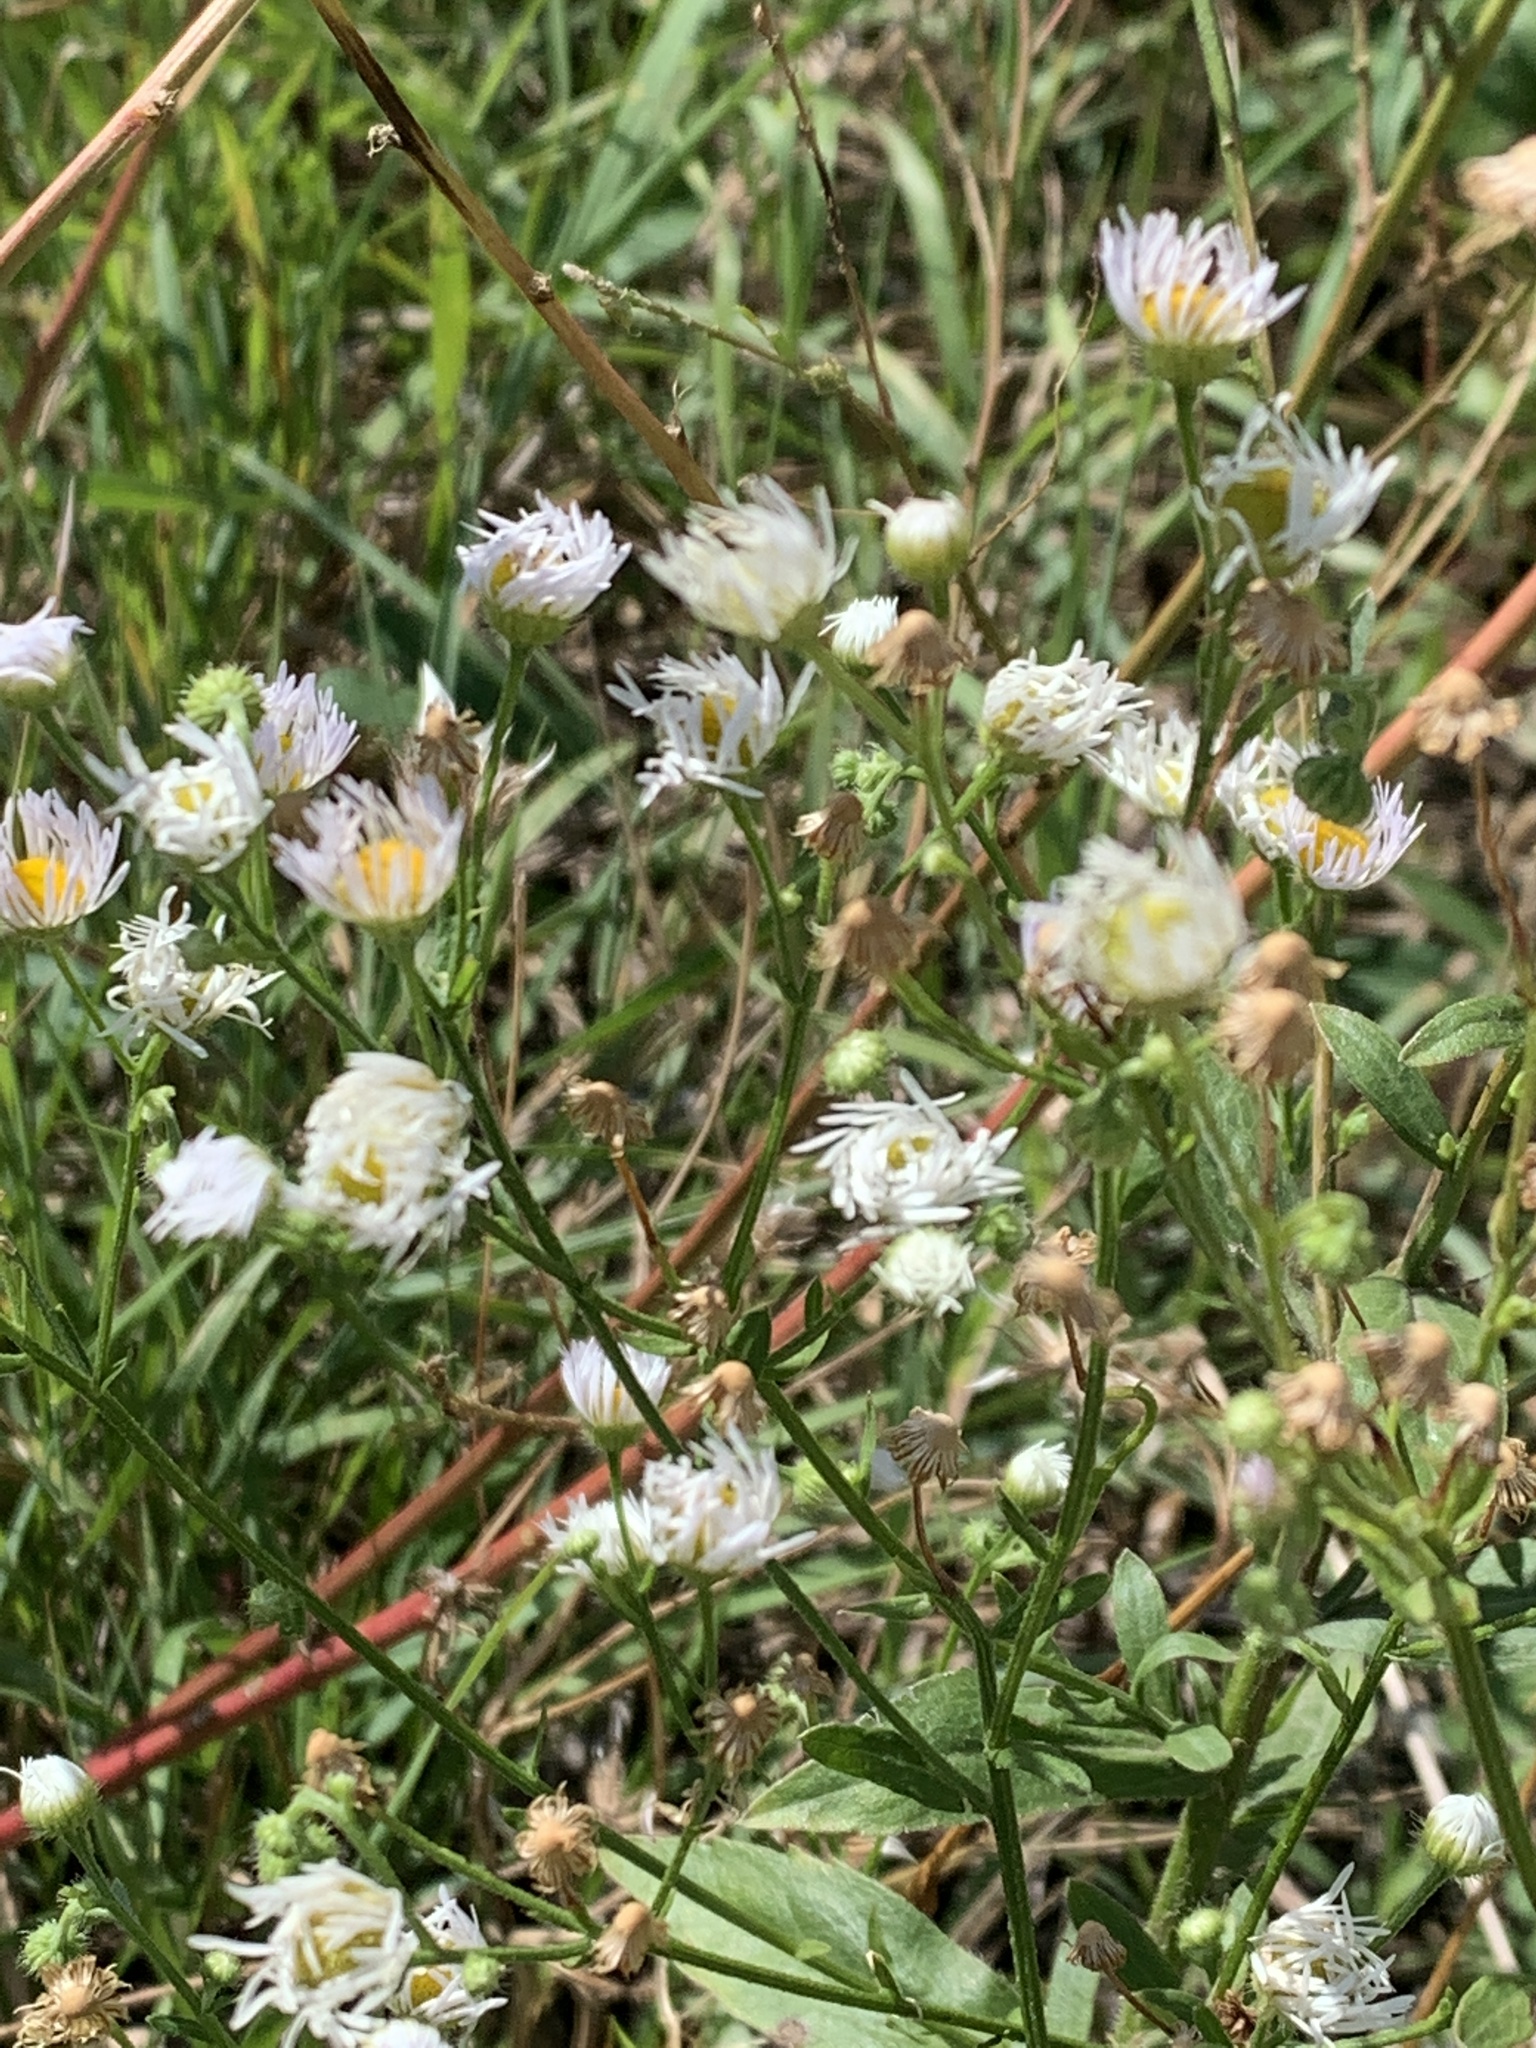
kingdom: Plantae
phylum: Tracheophyta
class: Magnoliopsida
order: Asterales
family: Asteraceae
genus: Erigeron
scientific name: Erigeron annuus
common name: Tall fleabane
